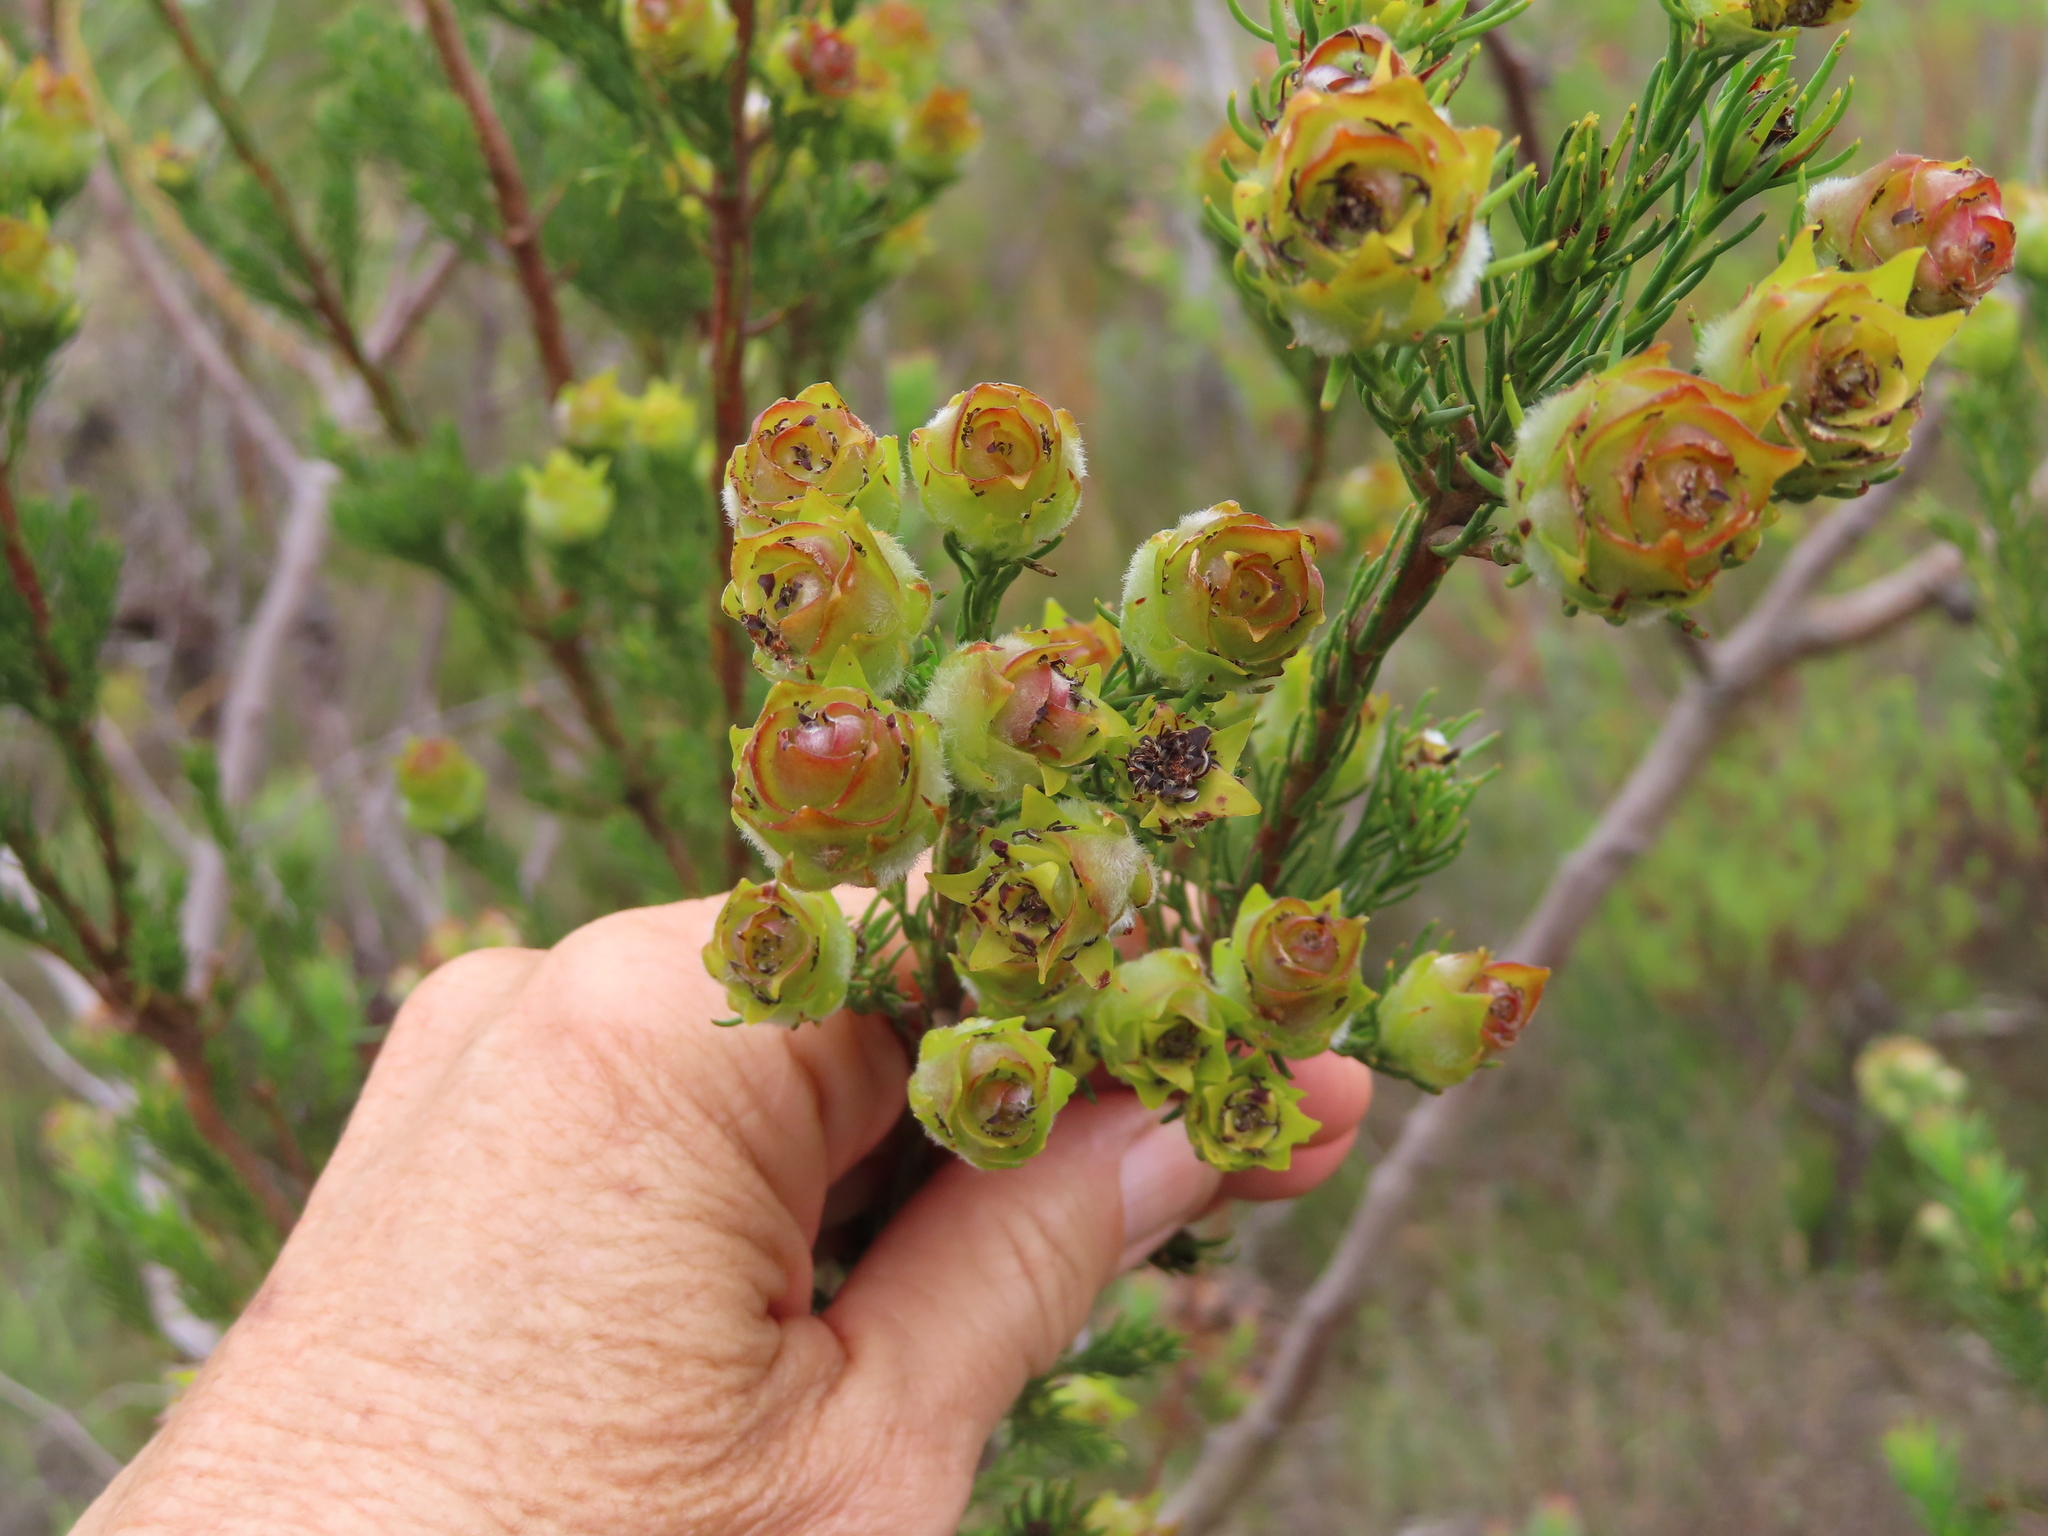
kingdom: Plantae
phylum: Tracheophyta
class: Magnoliopsida
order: Proteales
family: Proteaceae
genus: Leucadendron
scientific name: Leucadendron laxum
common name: Bredasdorp conebush
